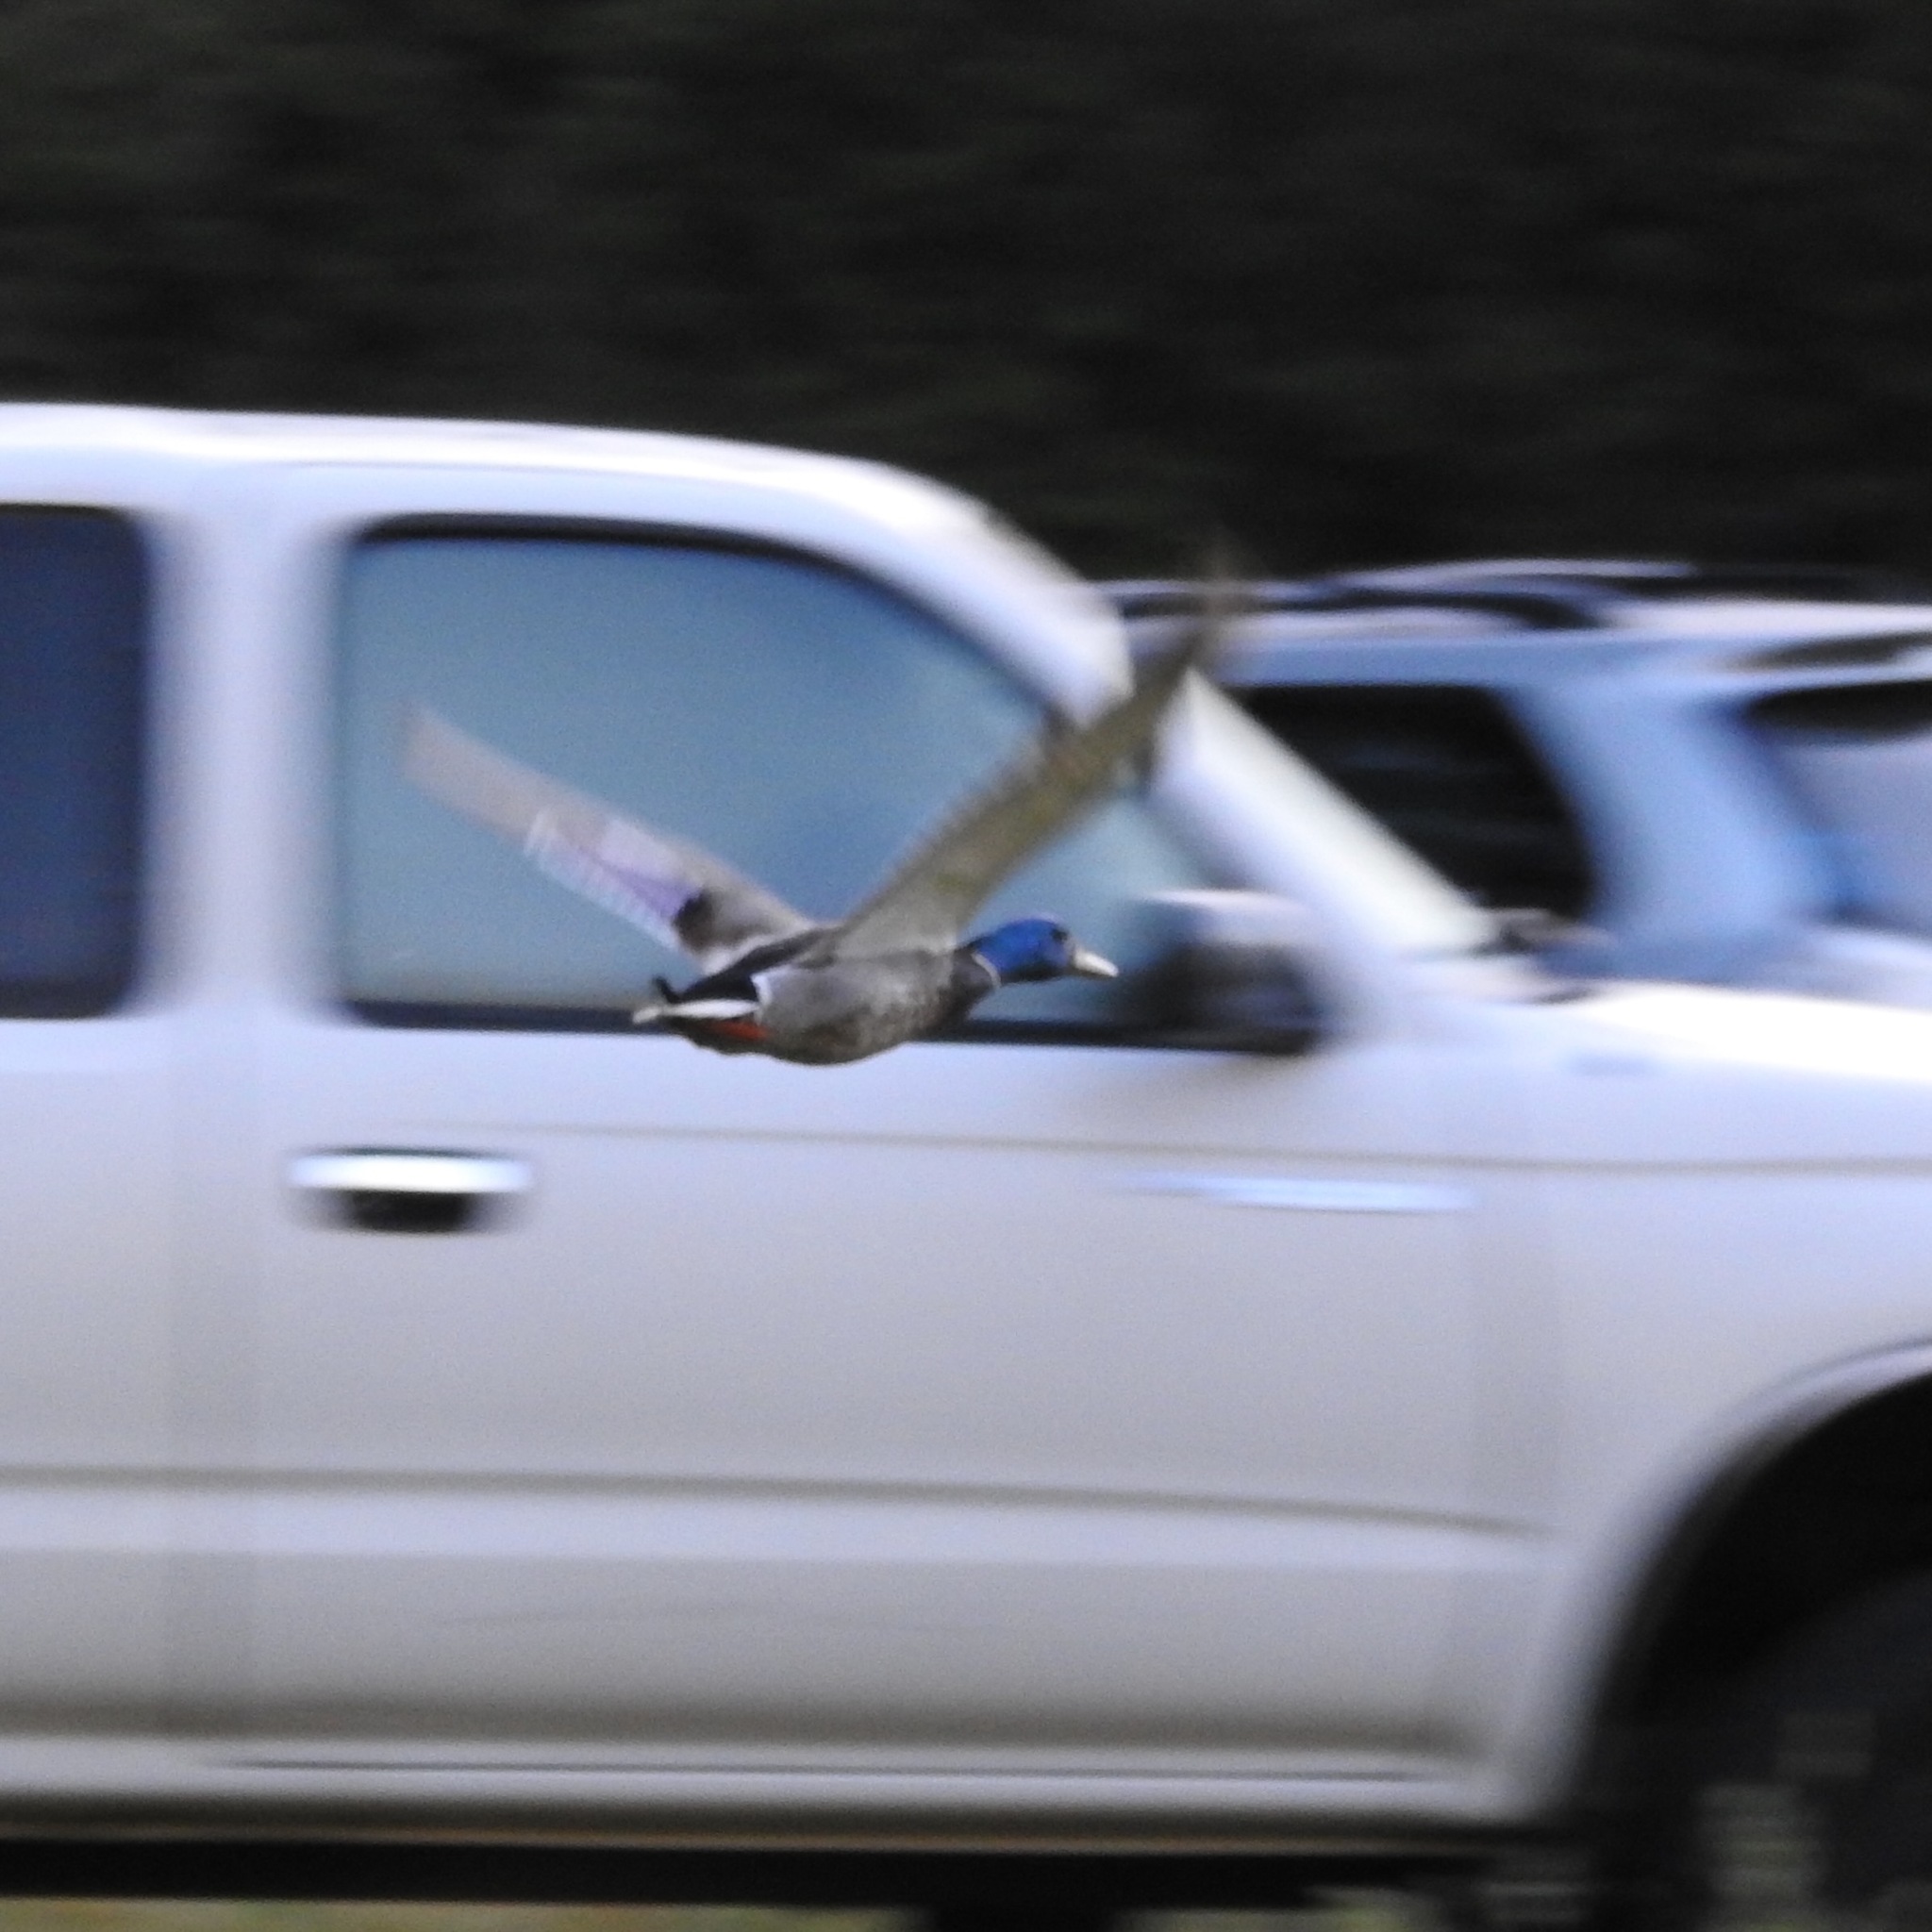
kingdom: Animalia
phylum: Chordata
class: Aves
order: Anseriformes
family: Anatidae
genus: Anas
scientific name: Anas platyrhynchos
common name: Mallard
